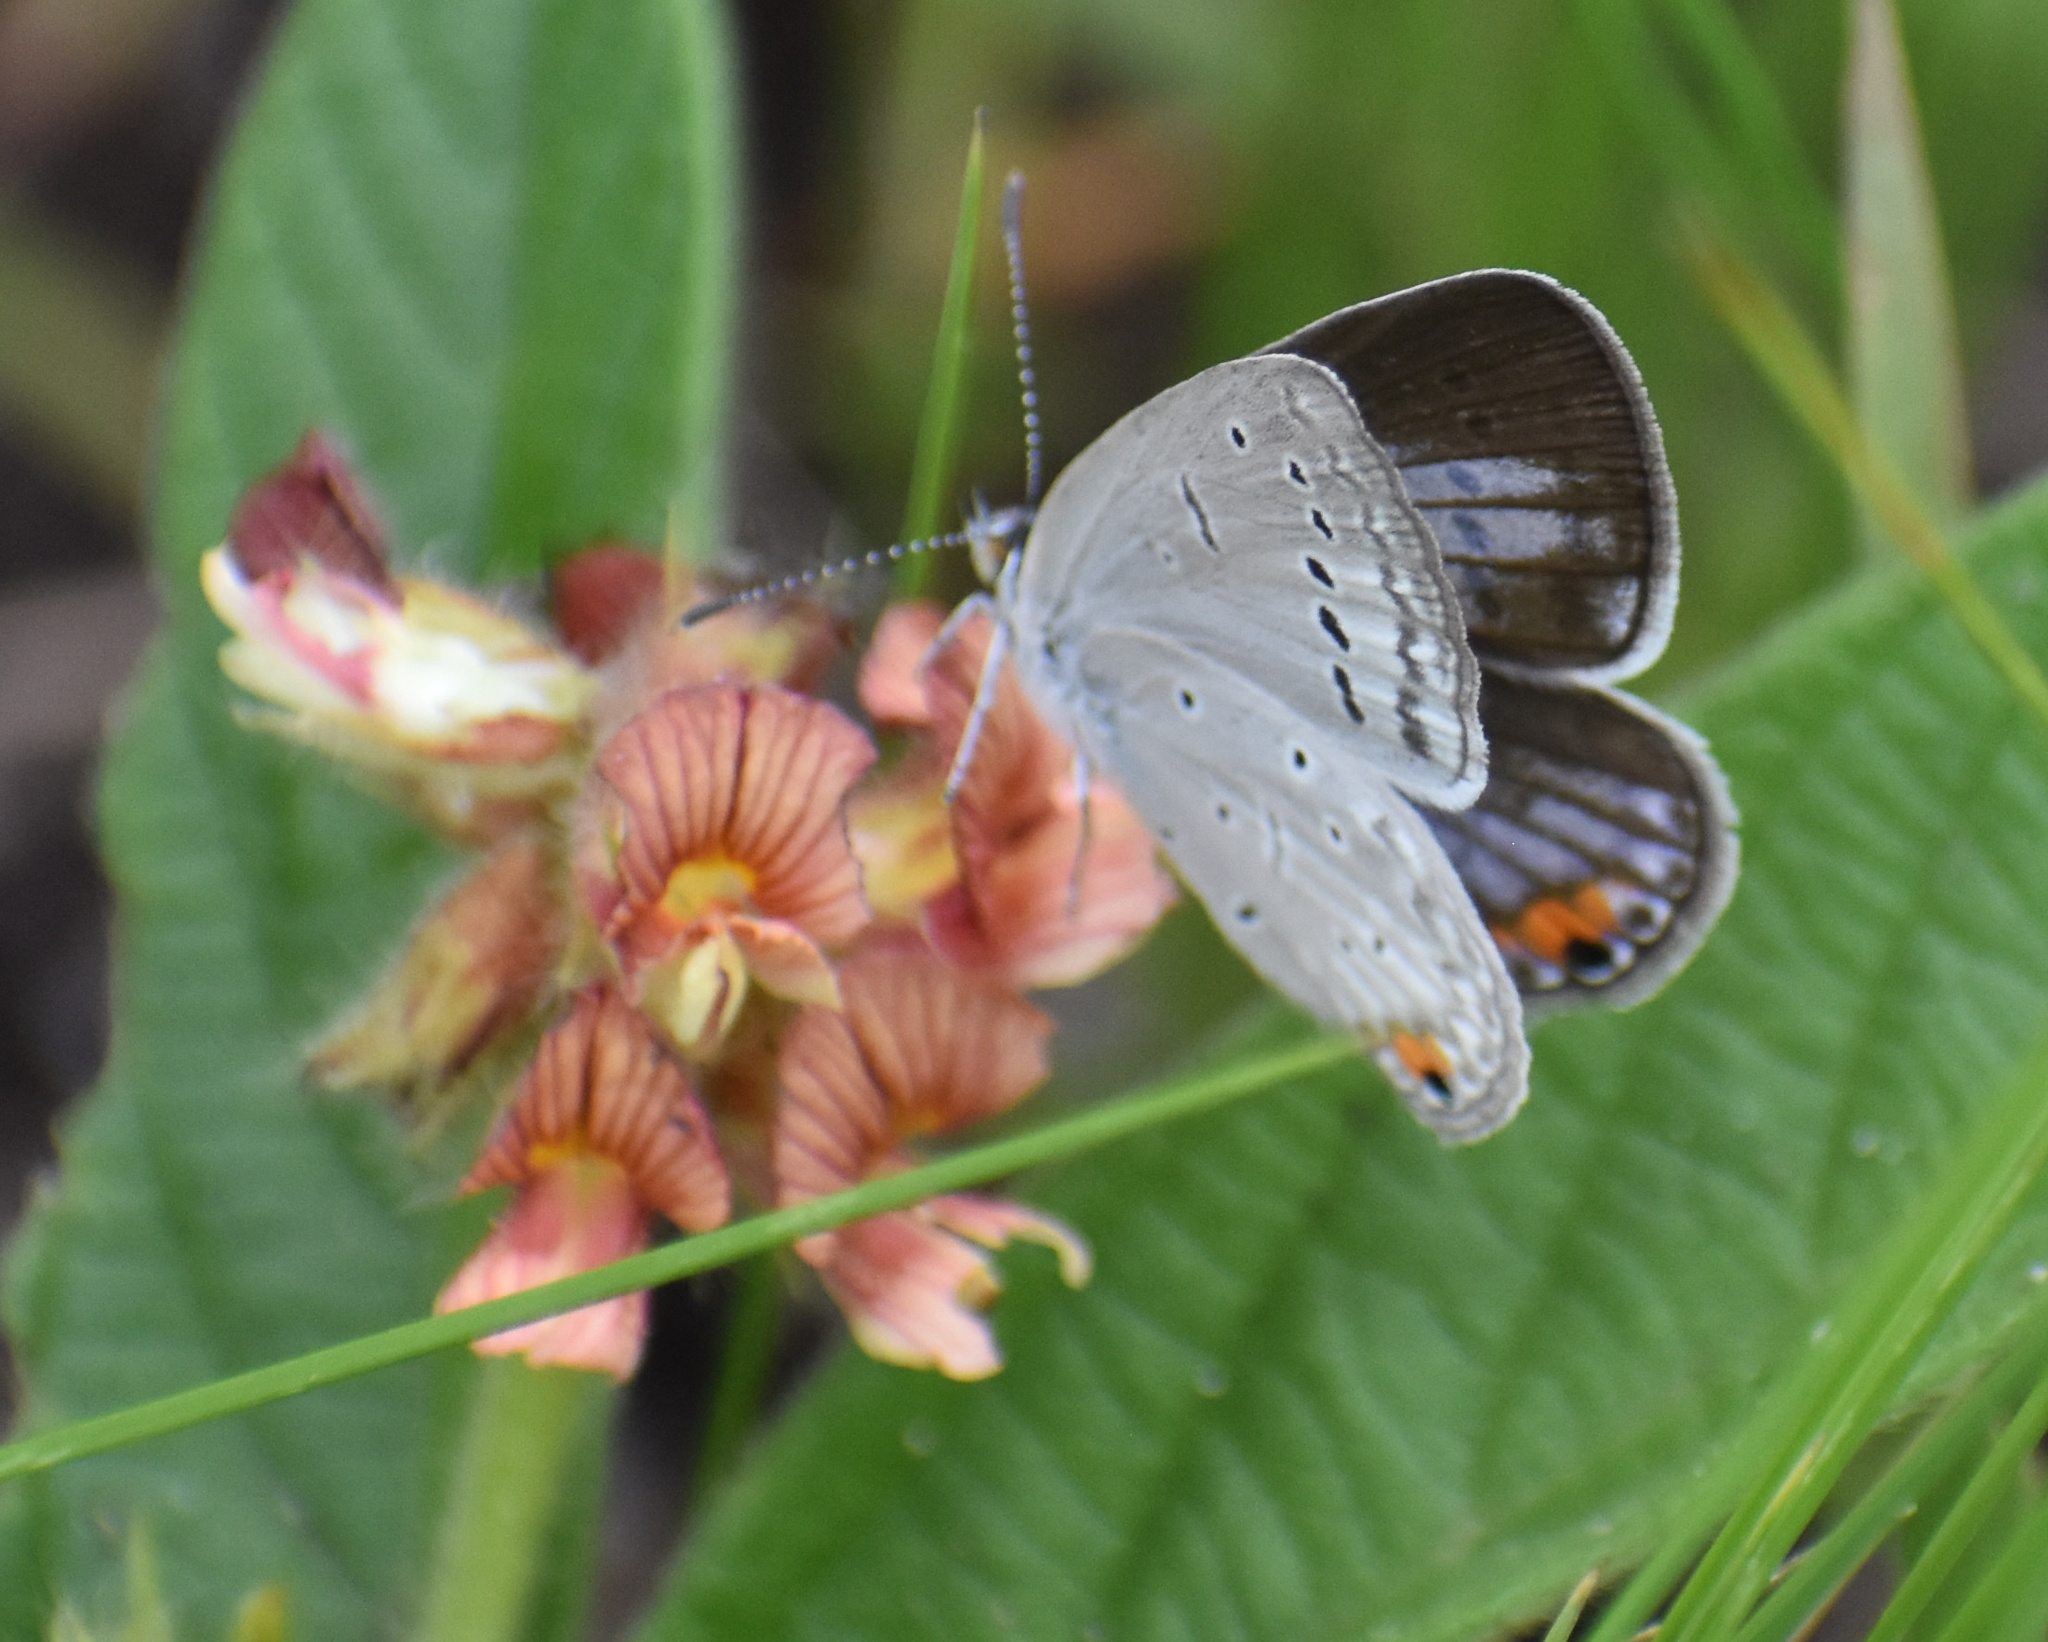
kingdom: Animalia
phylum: Arthropoda
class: Insecta
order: Lepidoptera
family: Lycaenidae
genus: Cupido
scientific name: Cupido cissus
